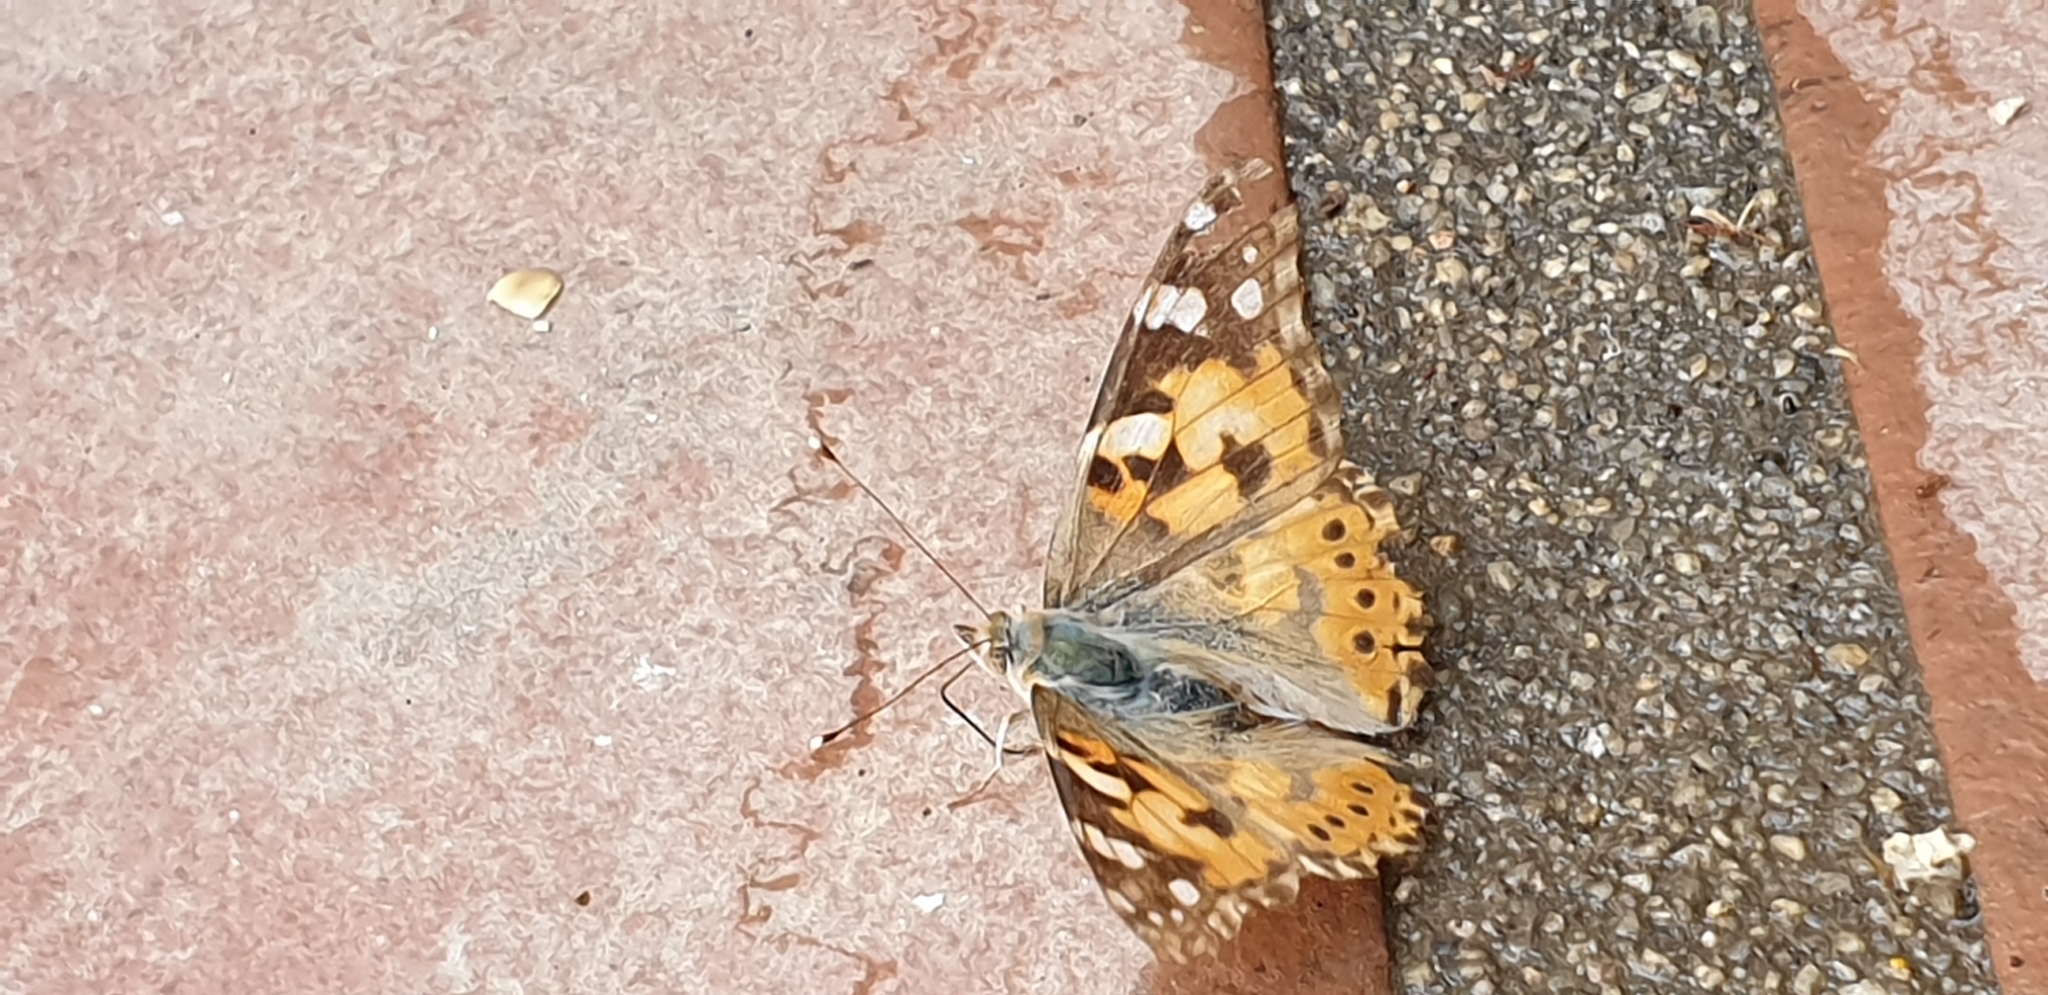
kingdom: Animalia
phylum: Arthropoda
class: Insecta
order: Lepidoptera
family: Nymphalidae
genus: Vanessa
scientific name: Vanessa cardui
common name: Painted lady
